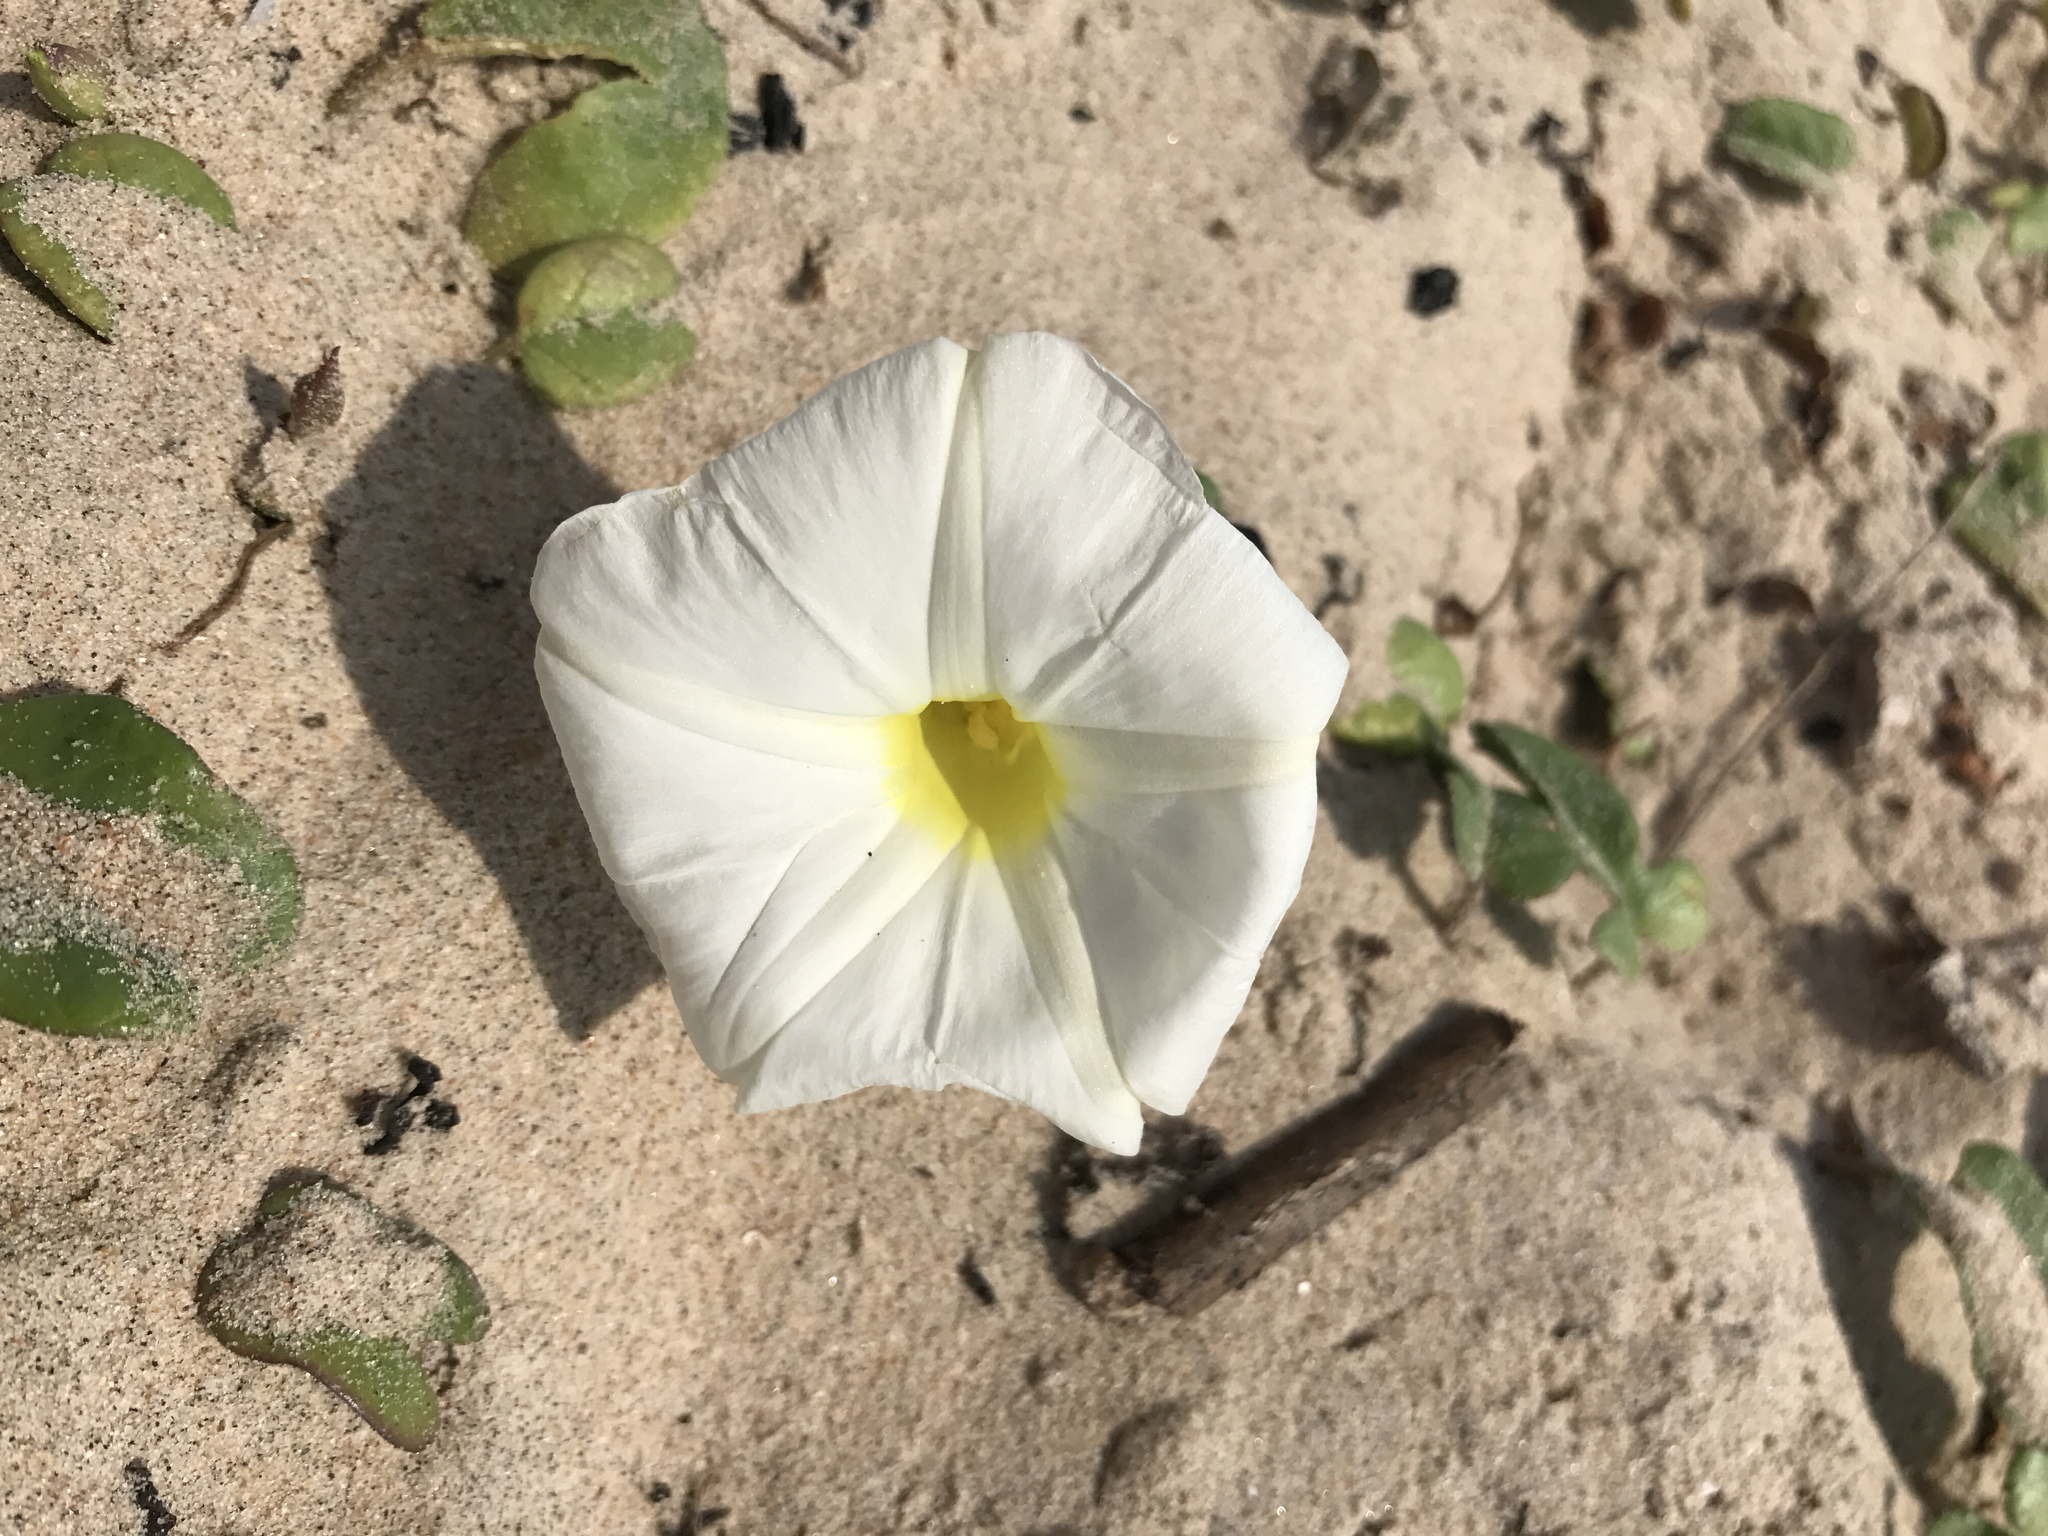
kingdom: Plantae
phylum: Tracheophyta
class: Magnoliopsida
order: Solanales
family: Convolvulaceae
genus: Ipomoea
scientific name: Ipomoea imperati
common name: Fiddle-leaf morning-glory
